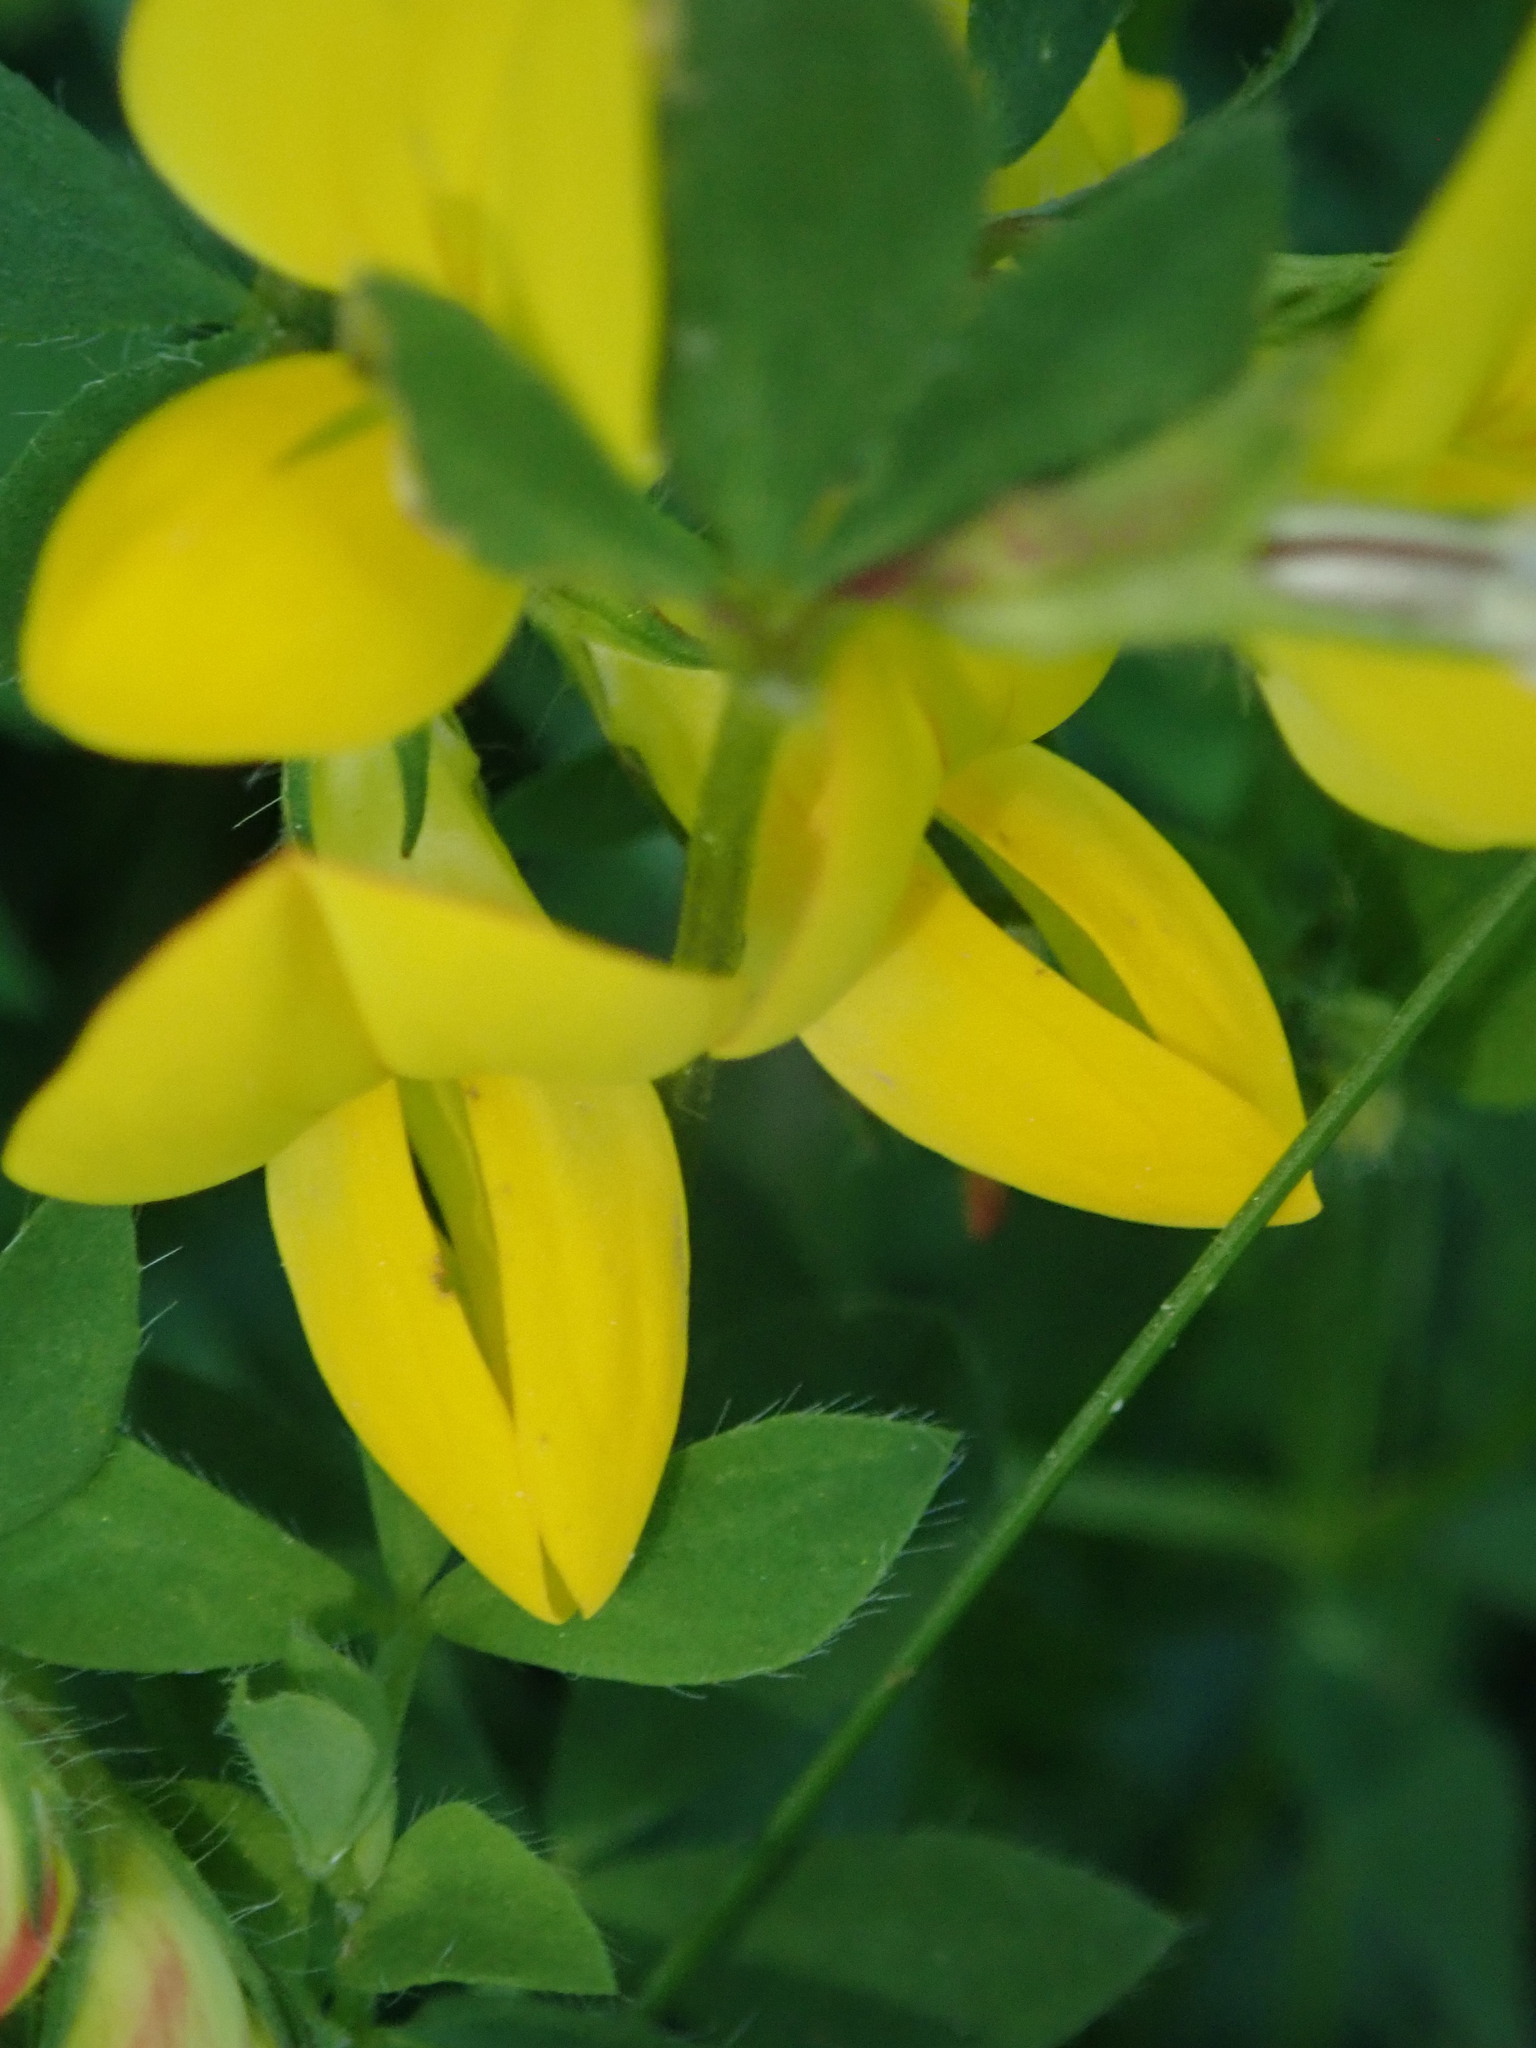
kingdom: Plantae
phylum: Tracheophyta
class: Magnoliopsida
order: Fabales
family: Fabaceae
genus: Lotus
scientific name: Lotus corniculatus
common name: Common bird's-foot-trefoil
